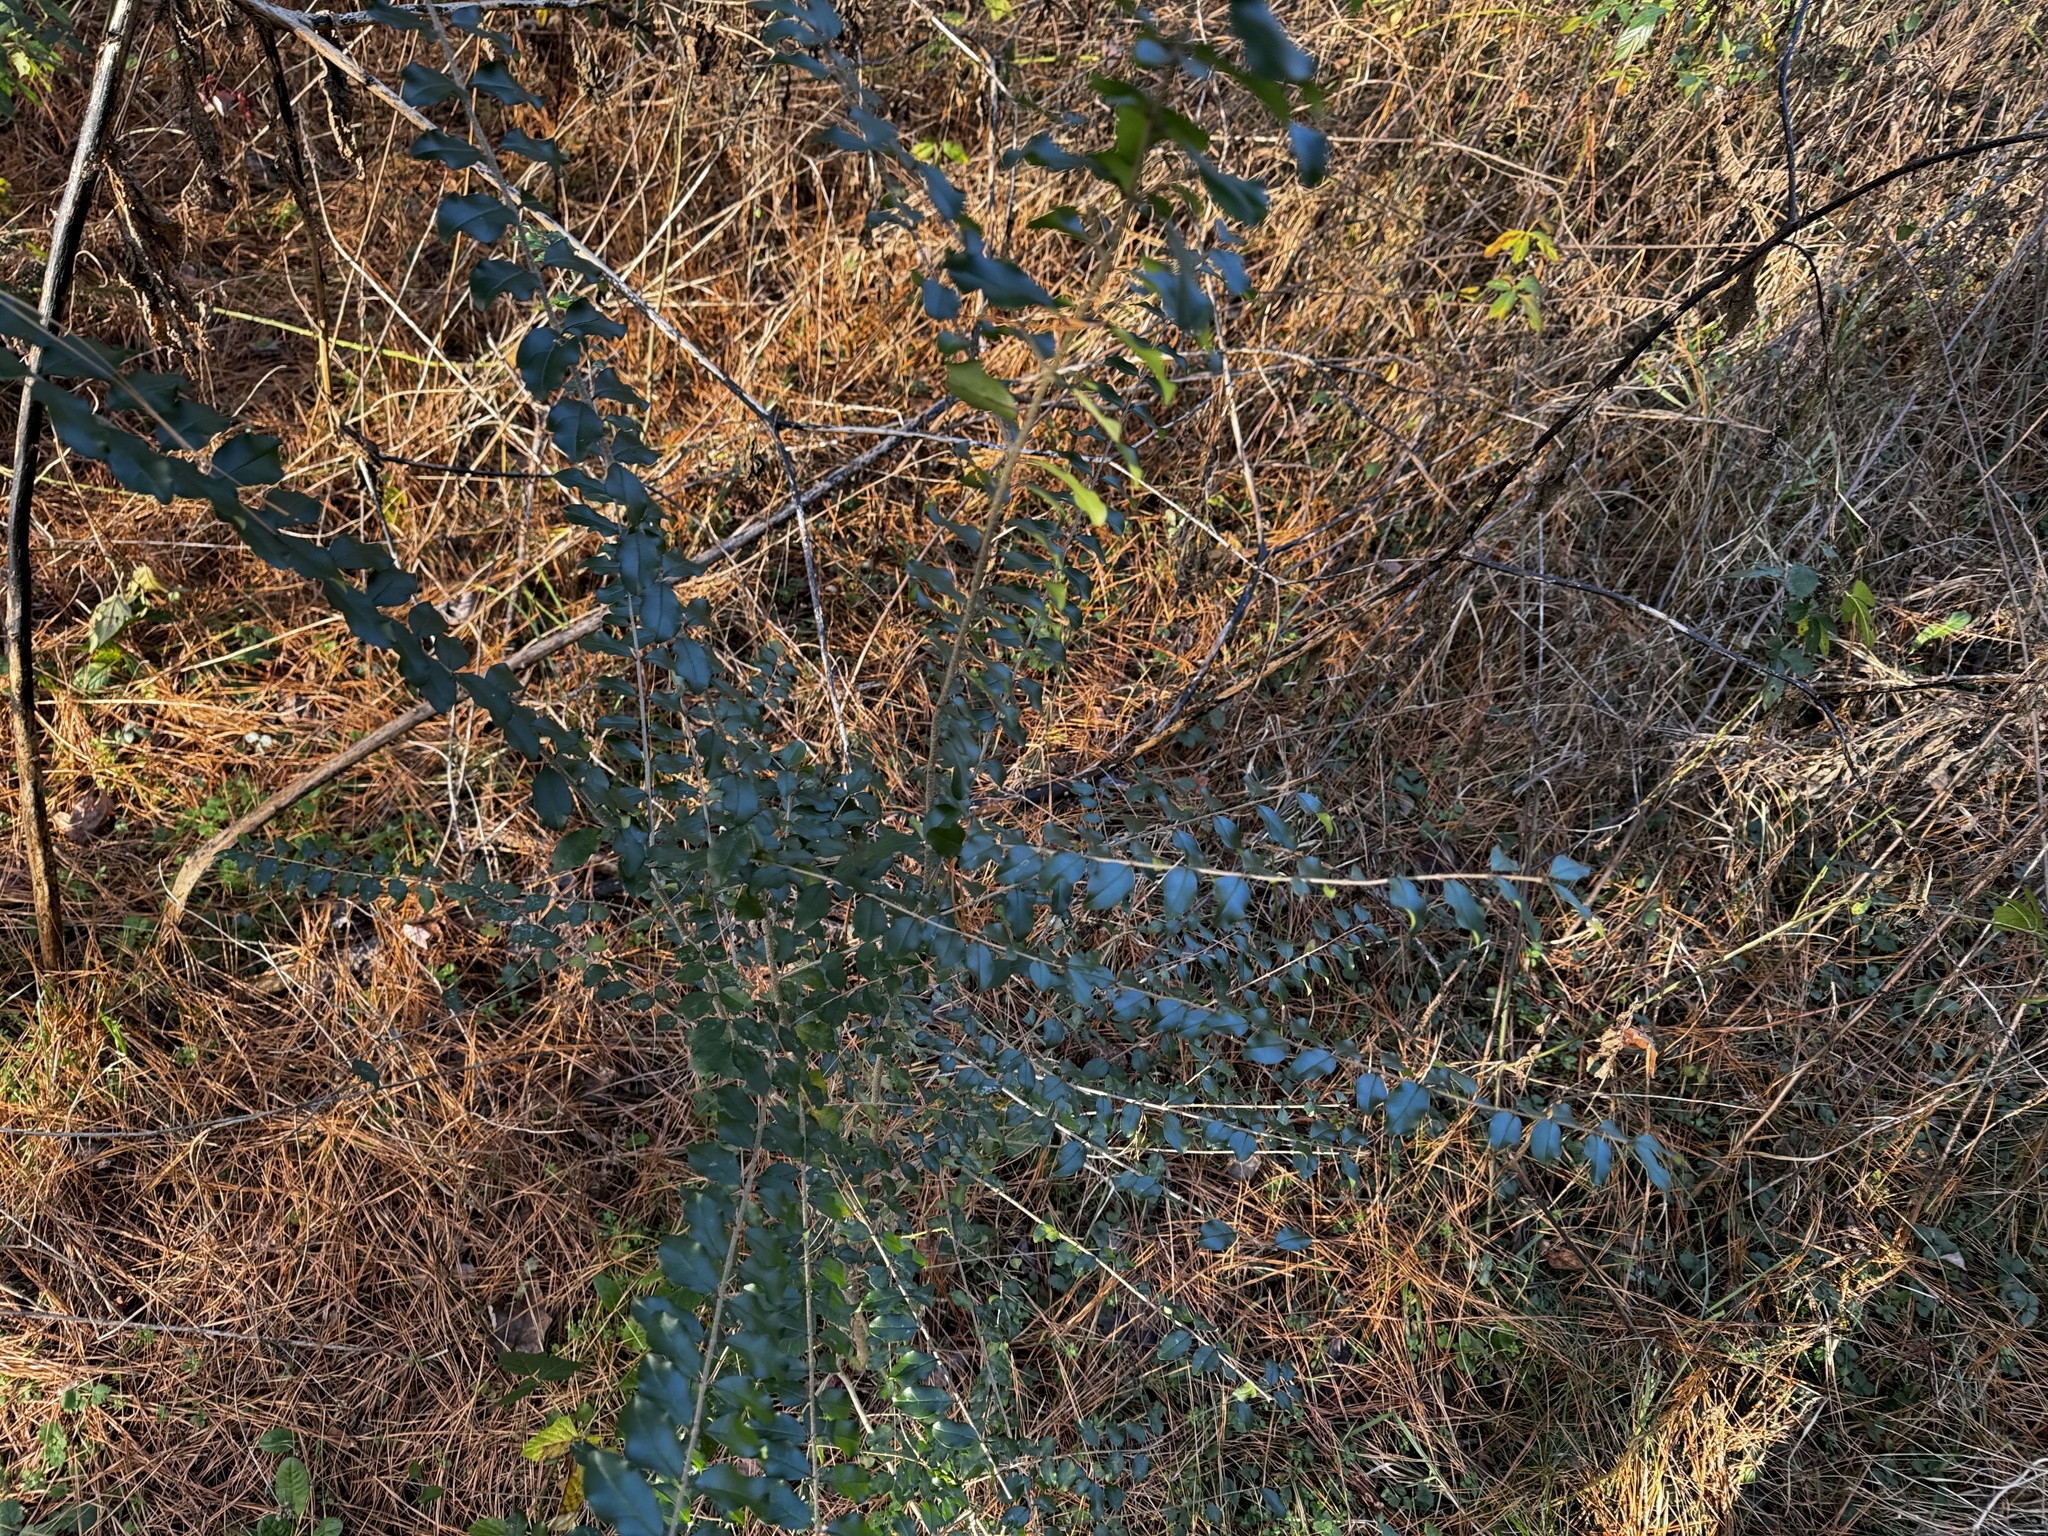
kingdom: Plantae
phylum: Tracheophyta
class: Magnoliopsida
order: Lamiales
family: Oleaceae
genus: Ligustrum
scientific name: Ligustrum sinense
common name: Chinese privet
